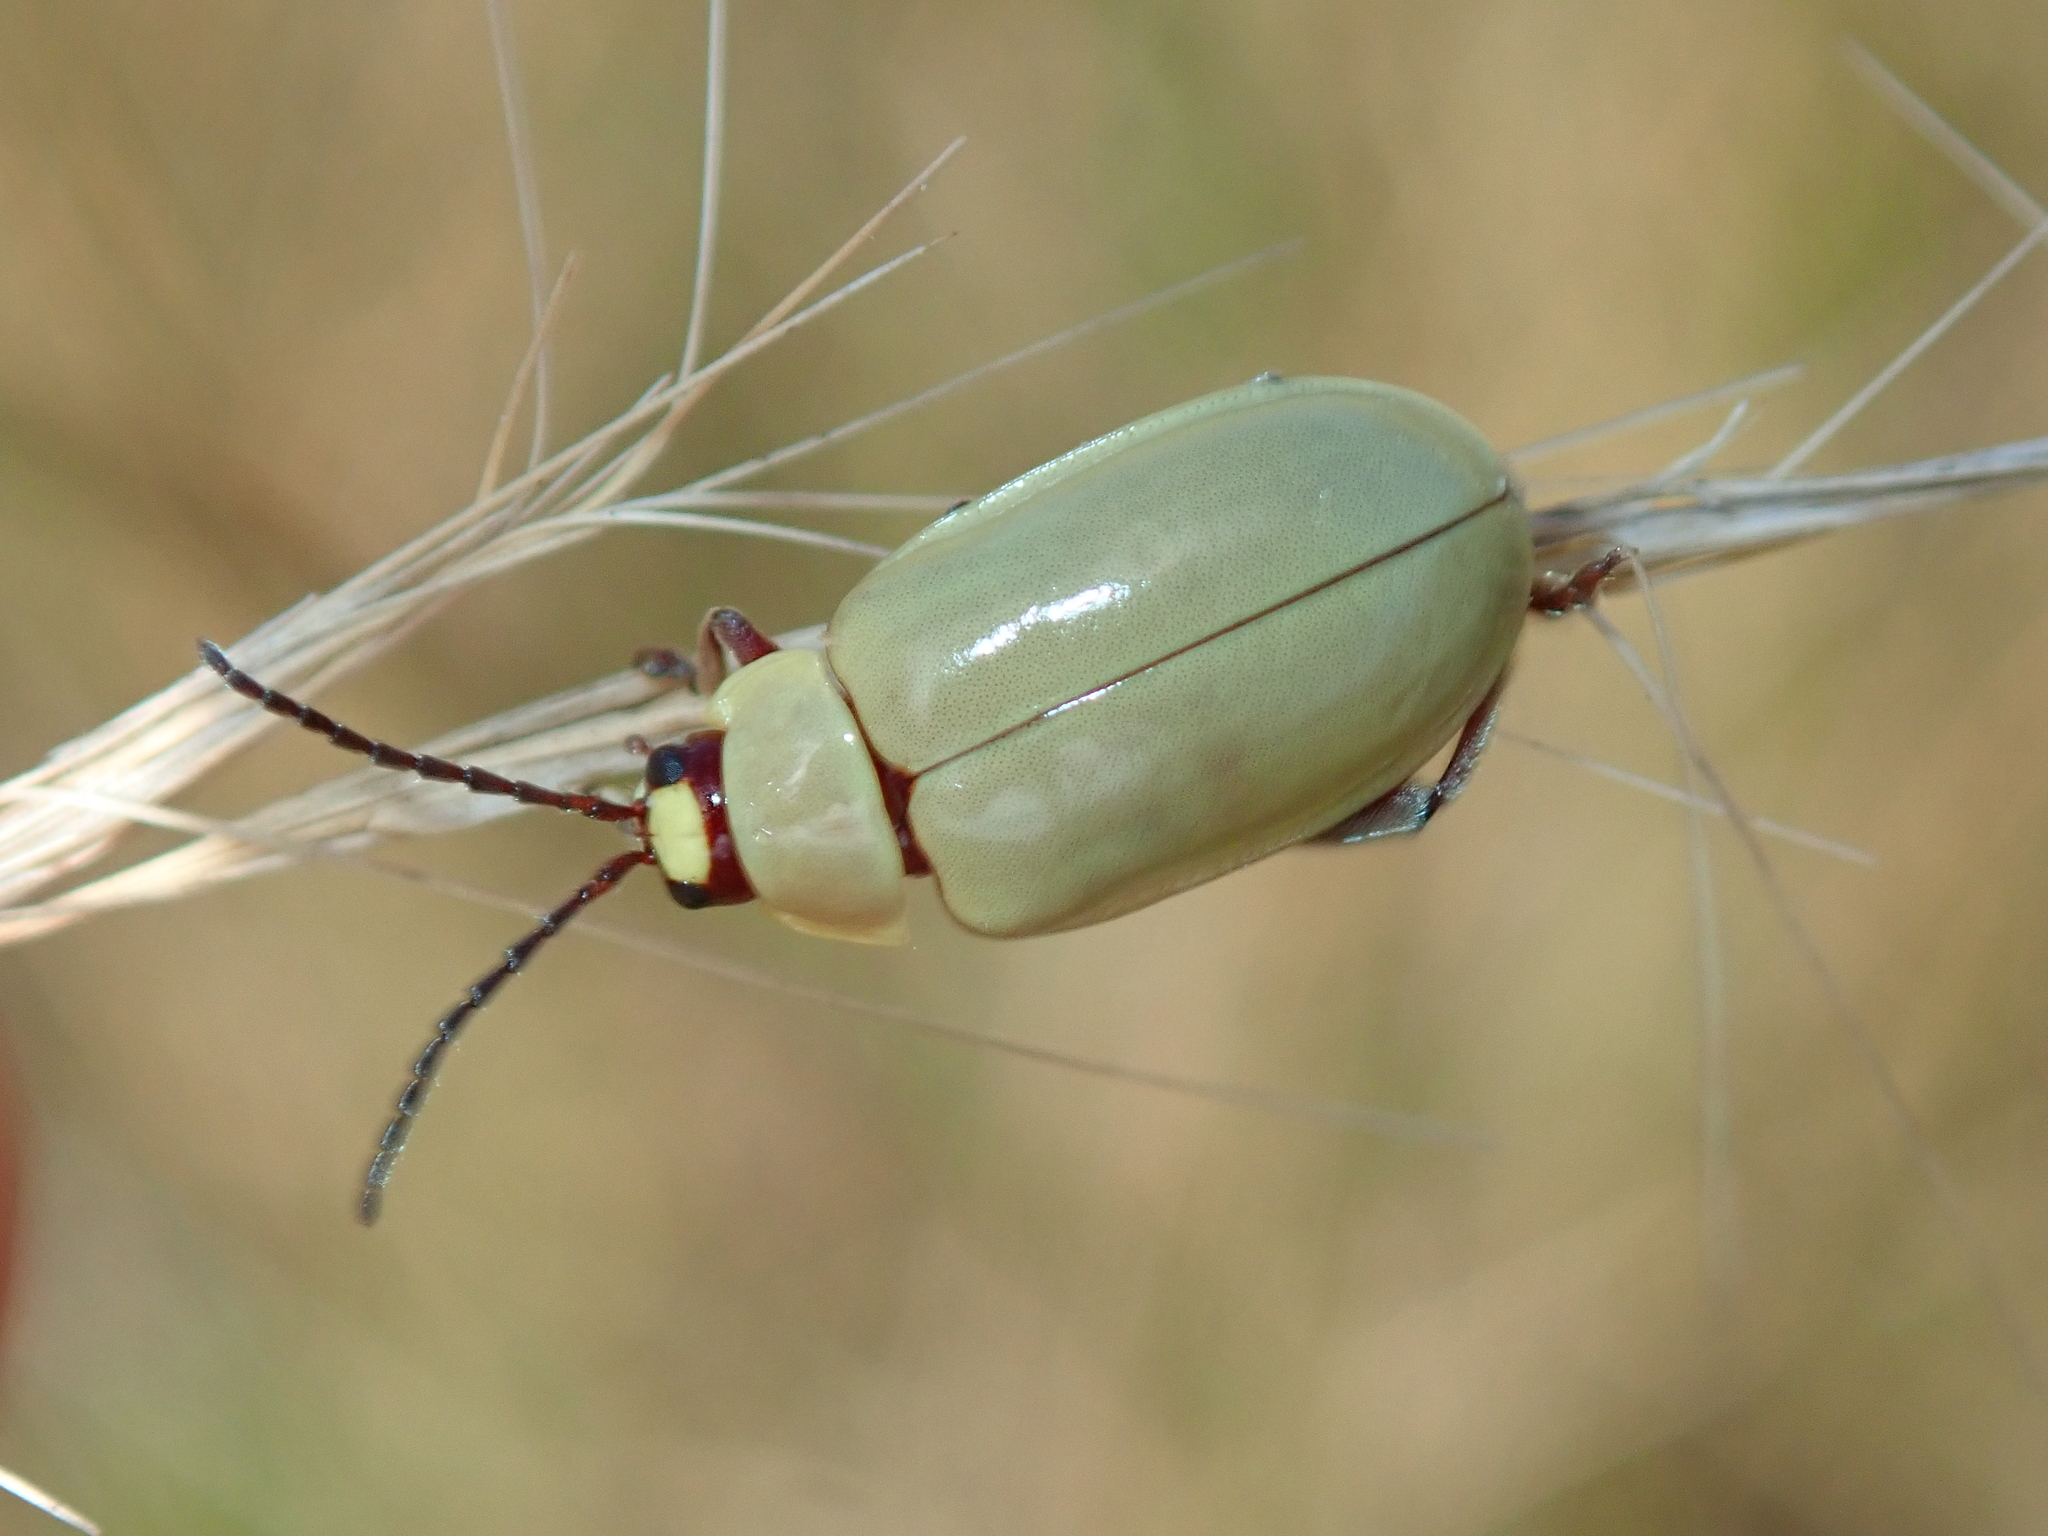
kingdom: Animalia
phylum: Arthropoda
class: Insecta
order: Coleoptera
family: Chrysomelidae
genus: Omophoita
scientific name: Omophoita
